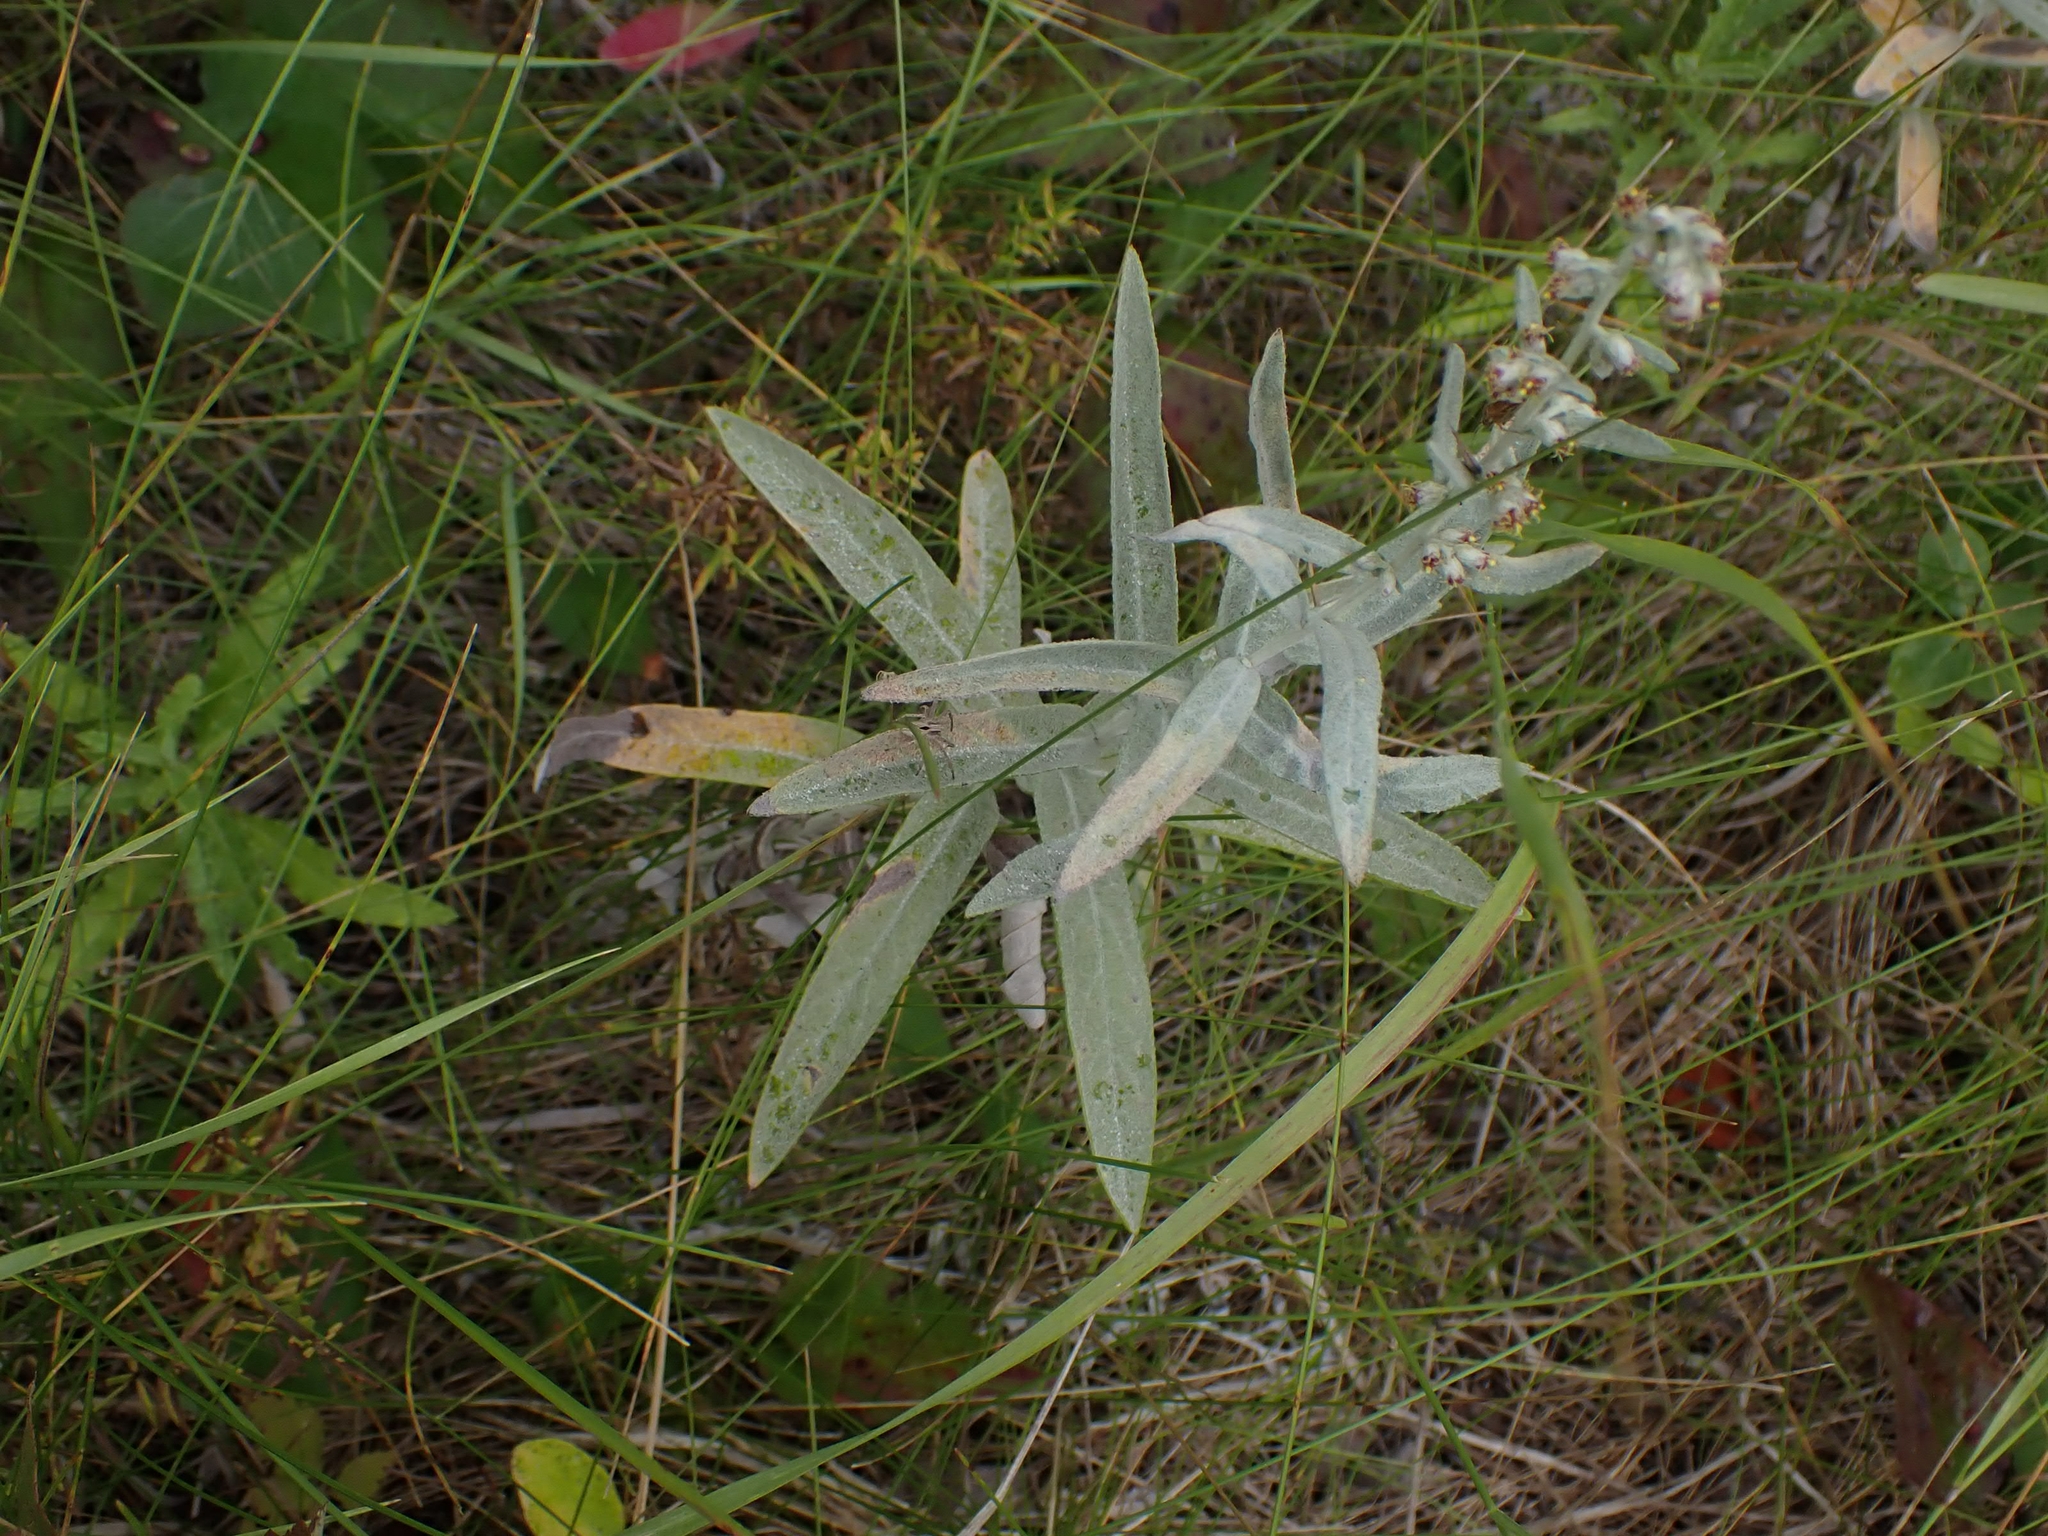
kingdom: Plantae
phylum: Tracheophyta
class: Magnoliopsida
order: Asterales
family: Asteraceae
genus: Artemisia
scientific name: Artemisia ludoviciana
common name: Western mugwort
